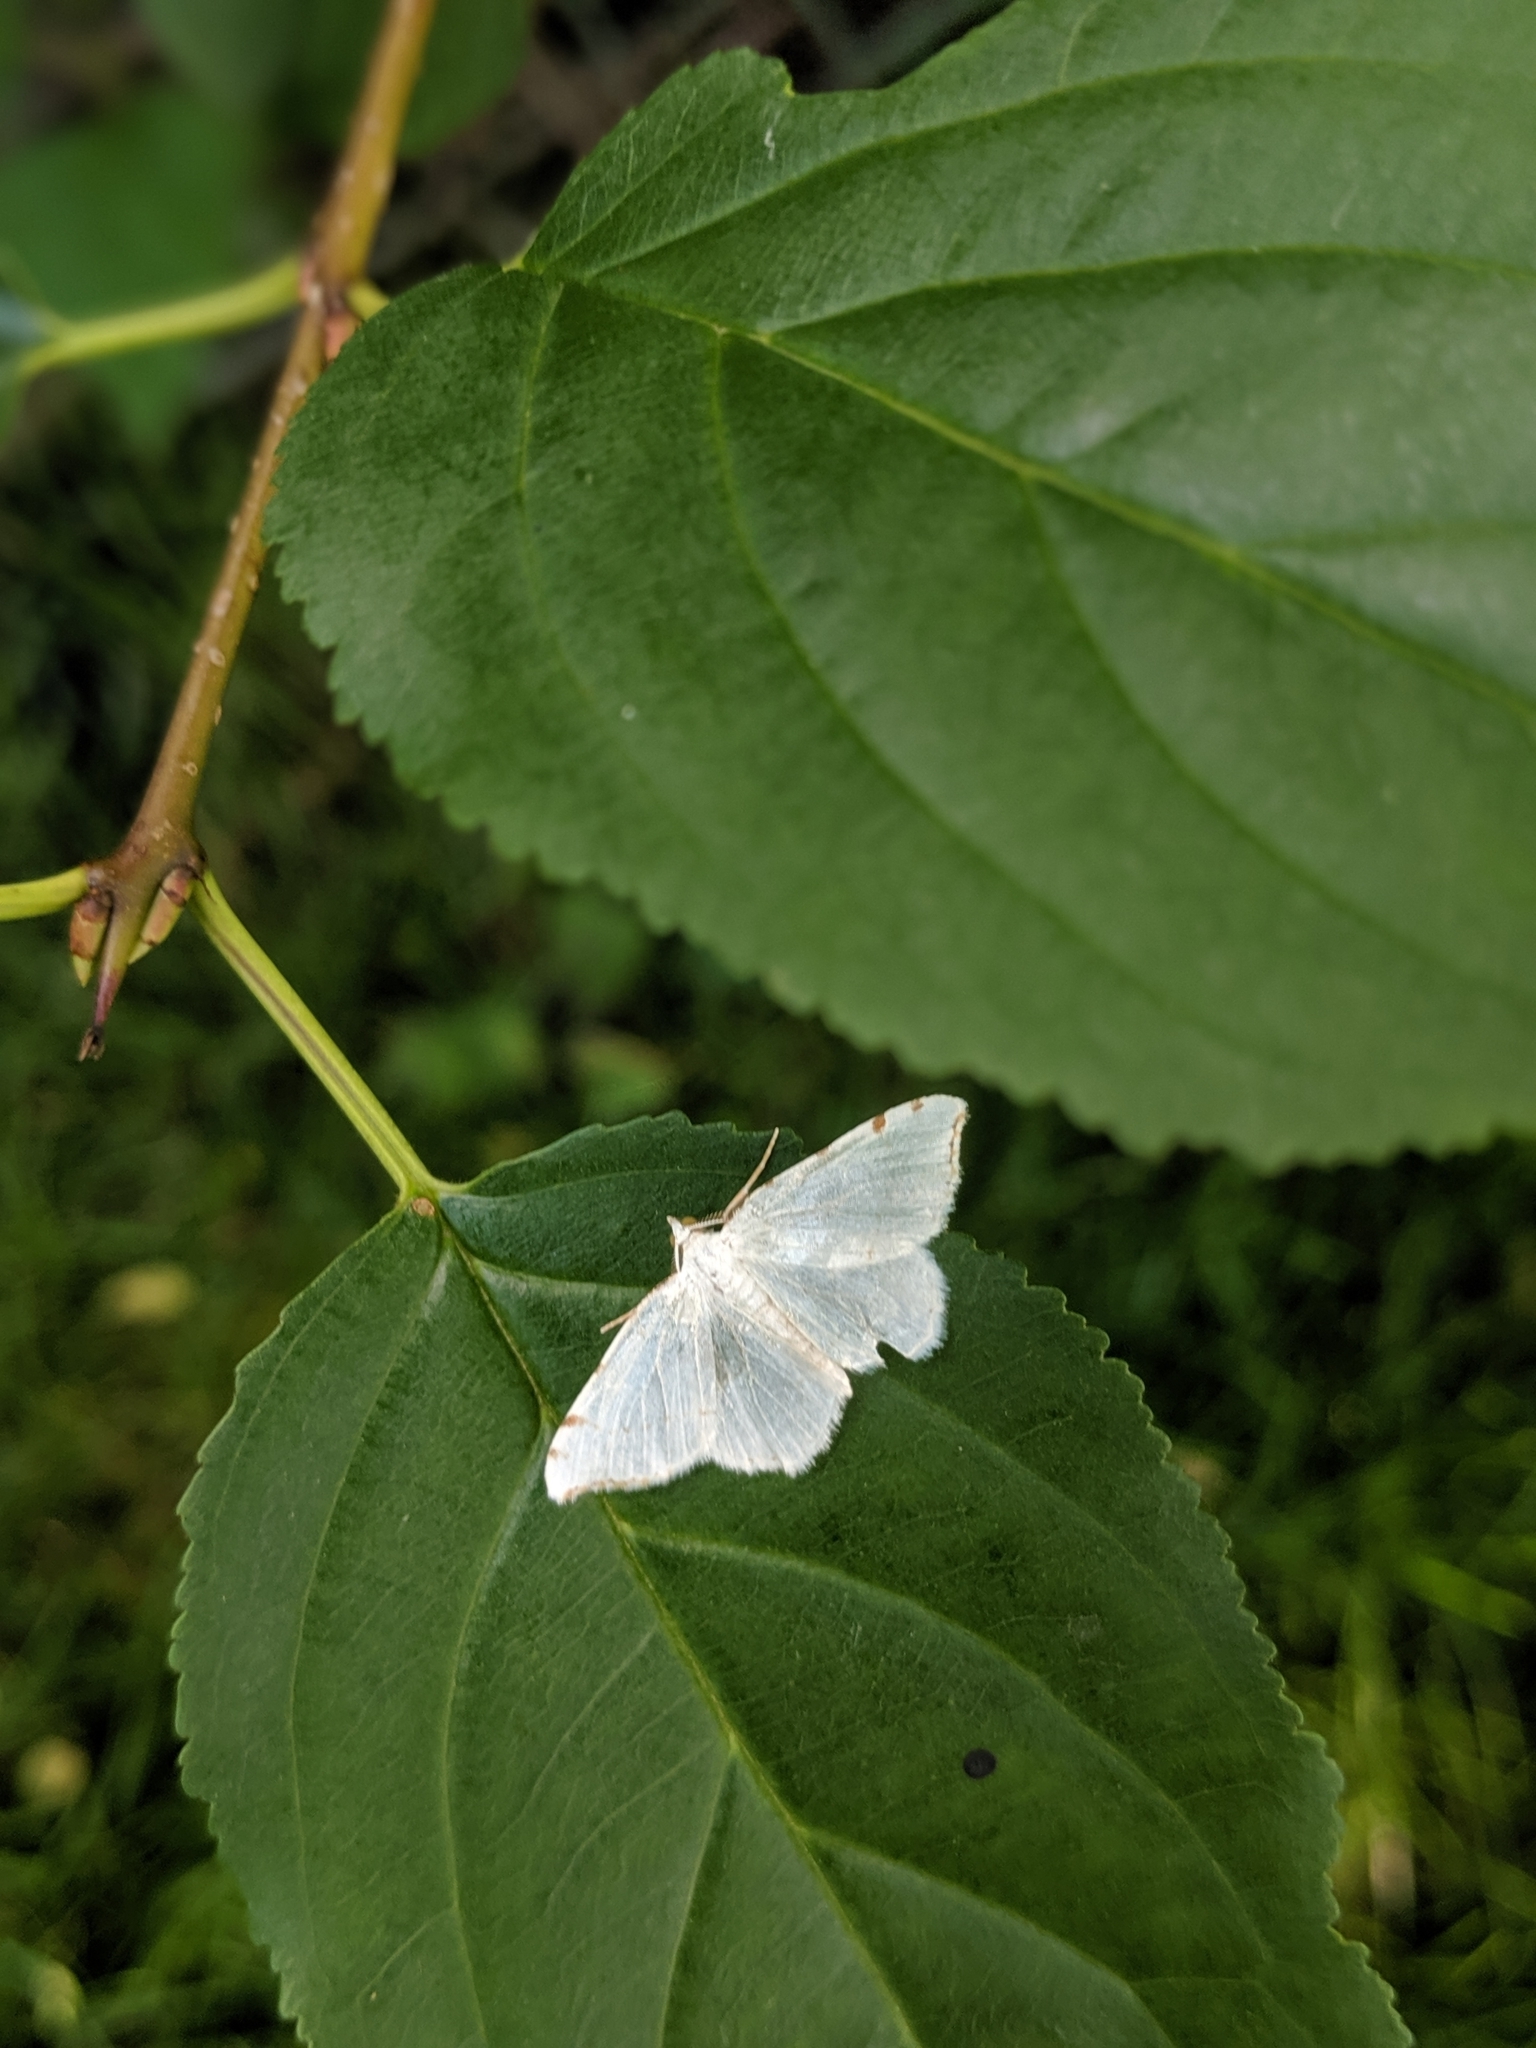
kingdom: Animalia
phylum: Arthropoda
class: Insecta
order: Lepidoptera
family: Geometridae
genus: Macaria
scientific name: Macaria pustularia
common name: Lesser maple spanworm moth
